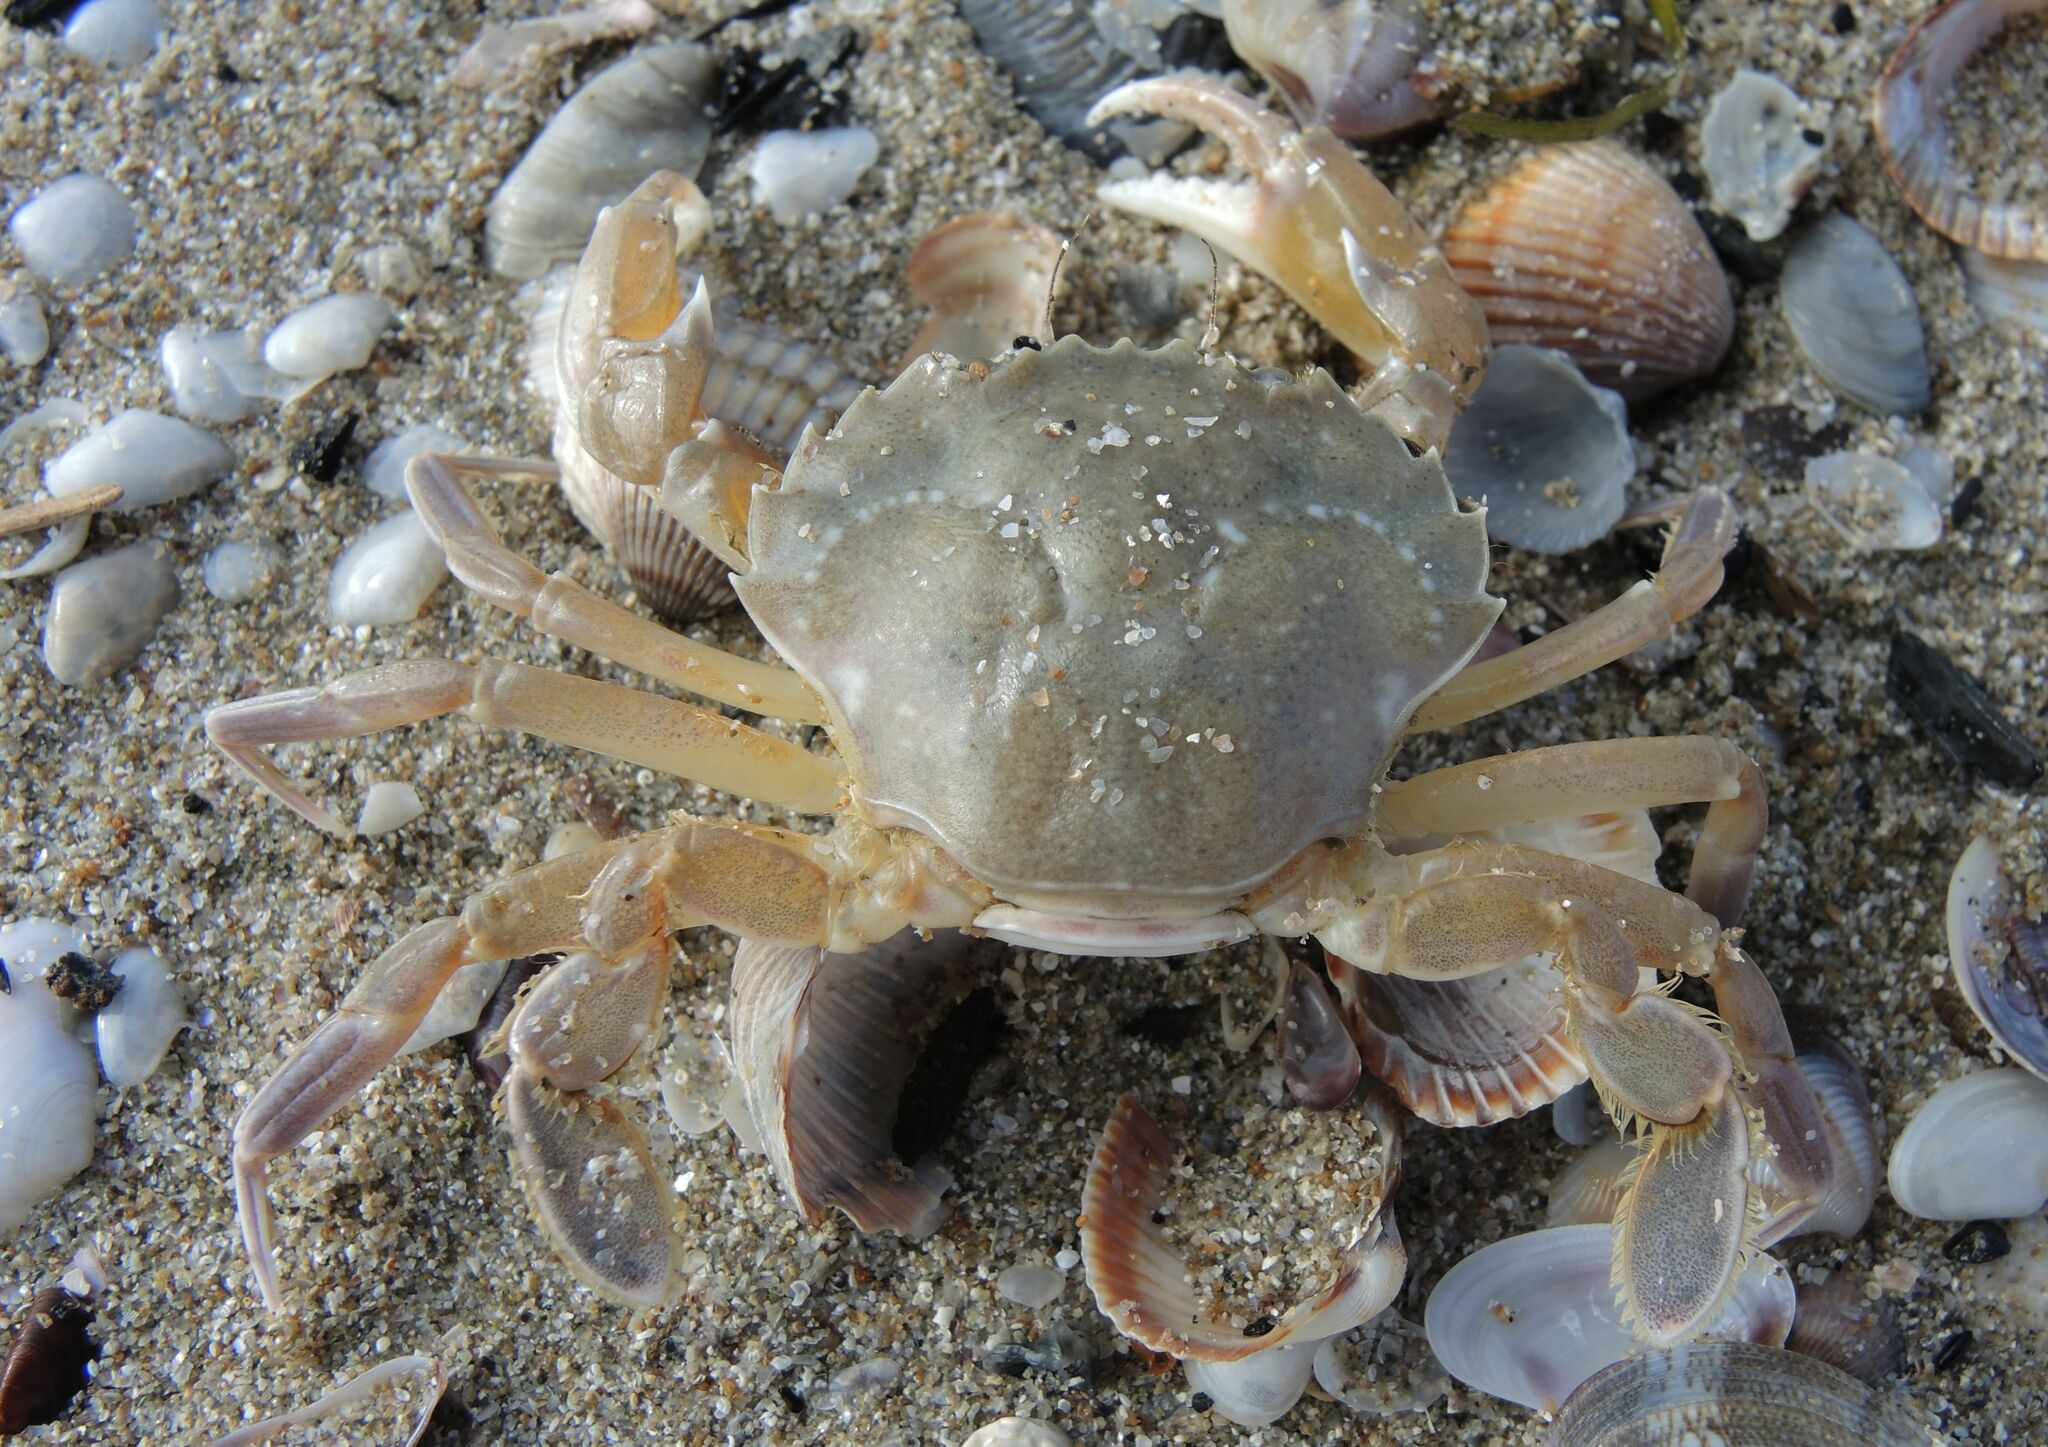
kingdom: Animalia
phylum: Arthropoda
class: Malacostraca
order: Decapoda
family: Polybiidae
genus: Liocarcinus
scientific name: Liocarcinus vernalis
